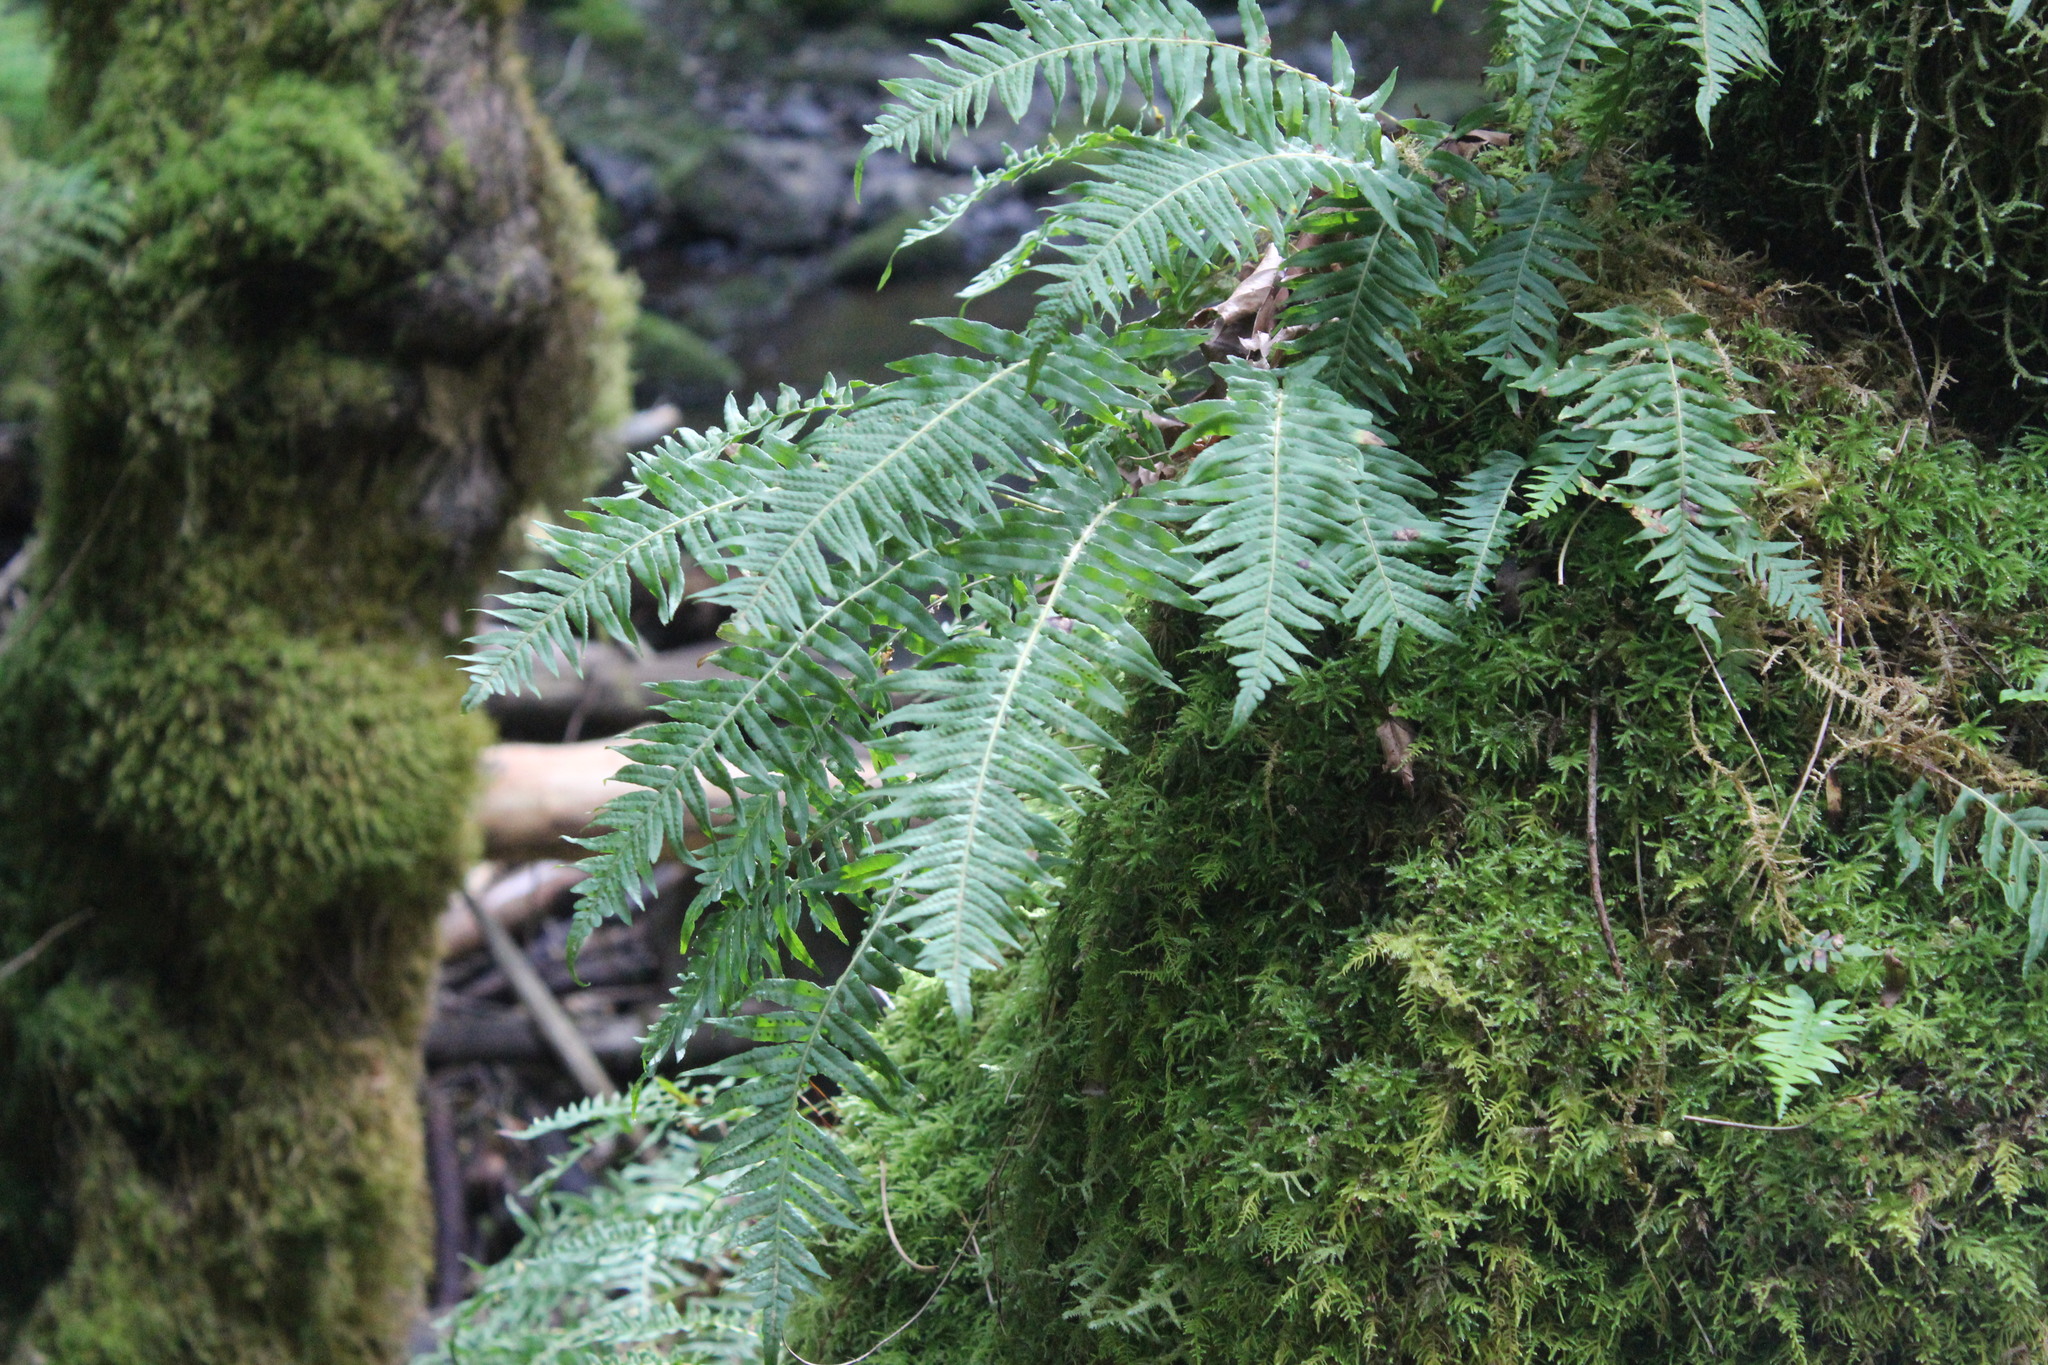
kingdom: Plantae
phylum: Tracheophyta
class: Polypodiopsida
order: Polypodiales
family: Polypodiaceae
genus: Polypodium
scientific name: Polypodium glycyrrhiza
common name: Licorice fern
